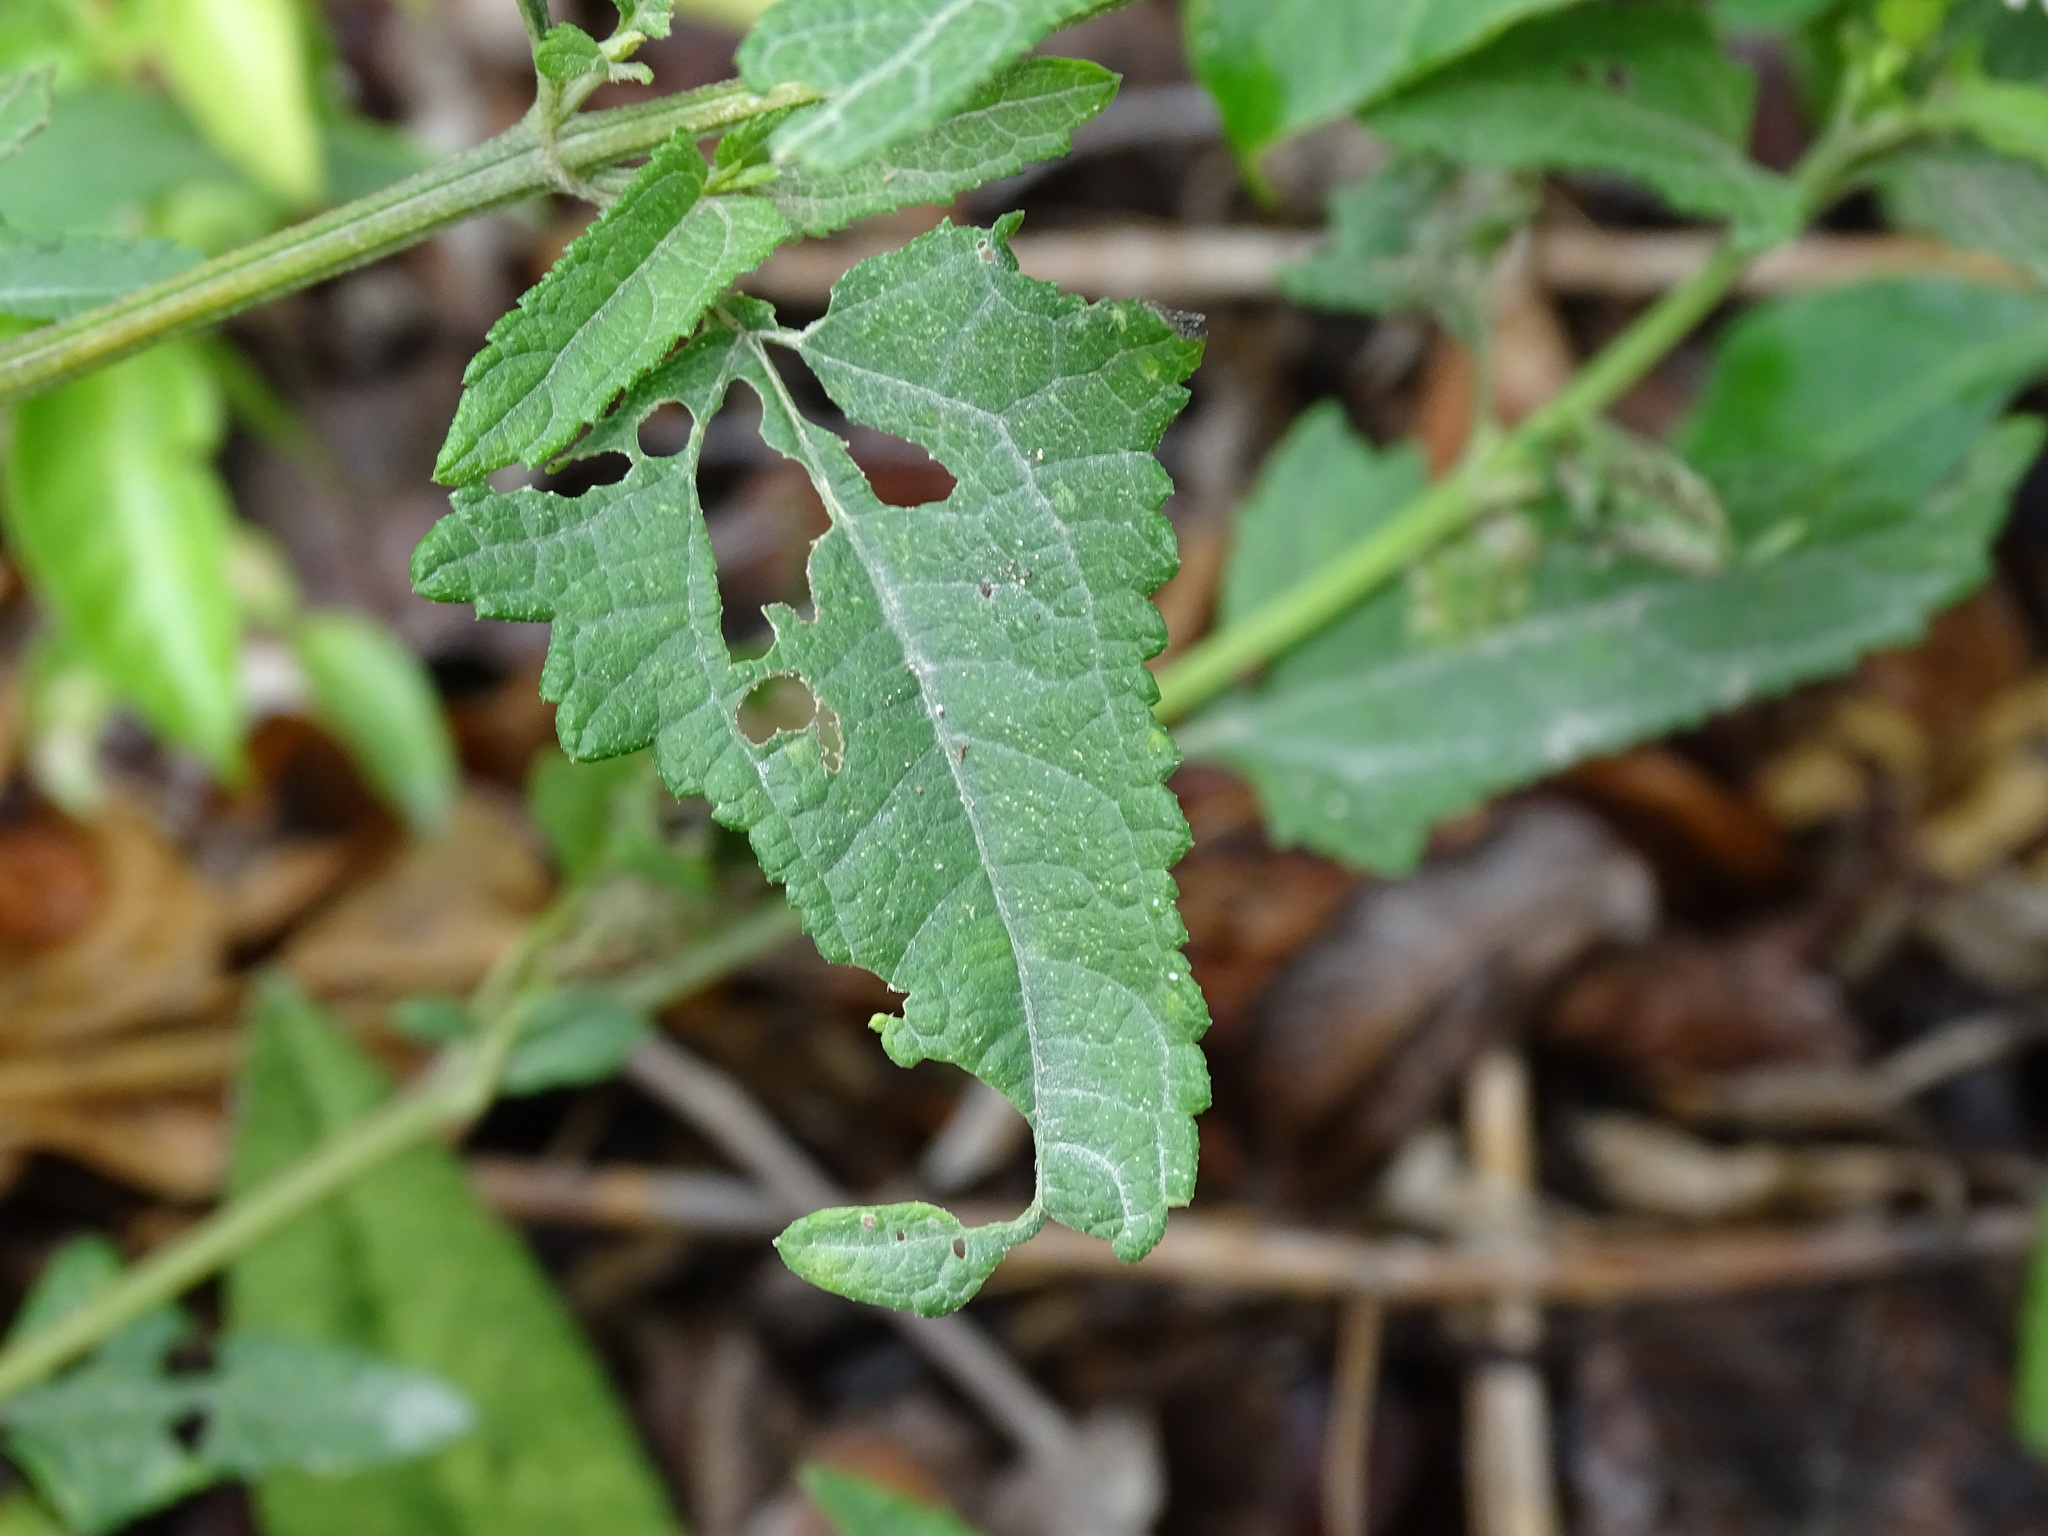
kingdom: Plantae
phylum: Tracheophyta
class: Magnoliopsida
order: Asterales
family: Asteraceae
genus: Melanthera
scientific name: Melanthera nivea
